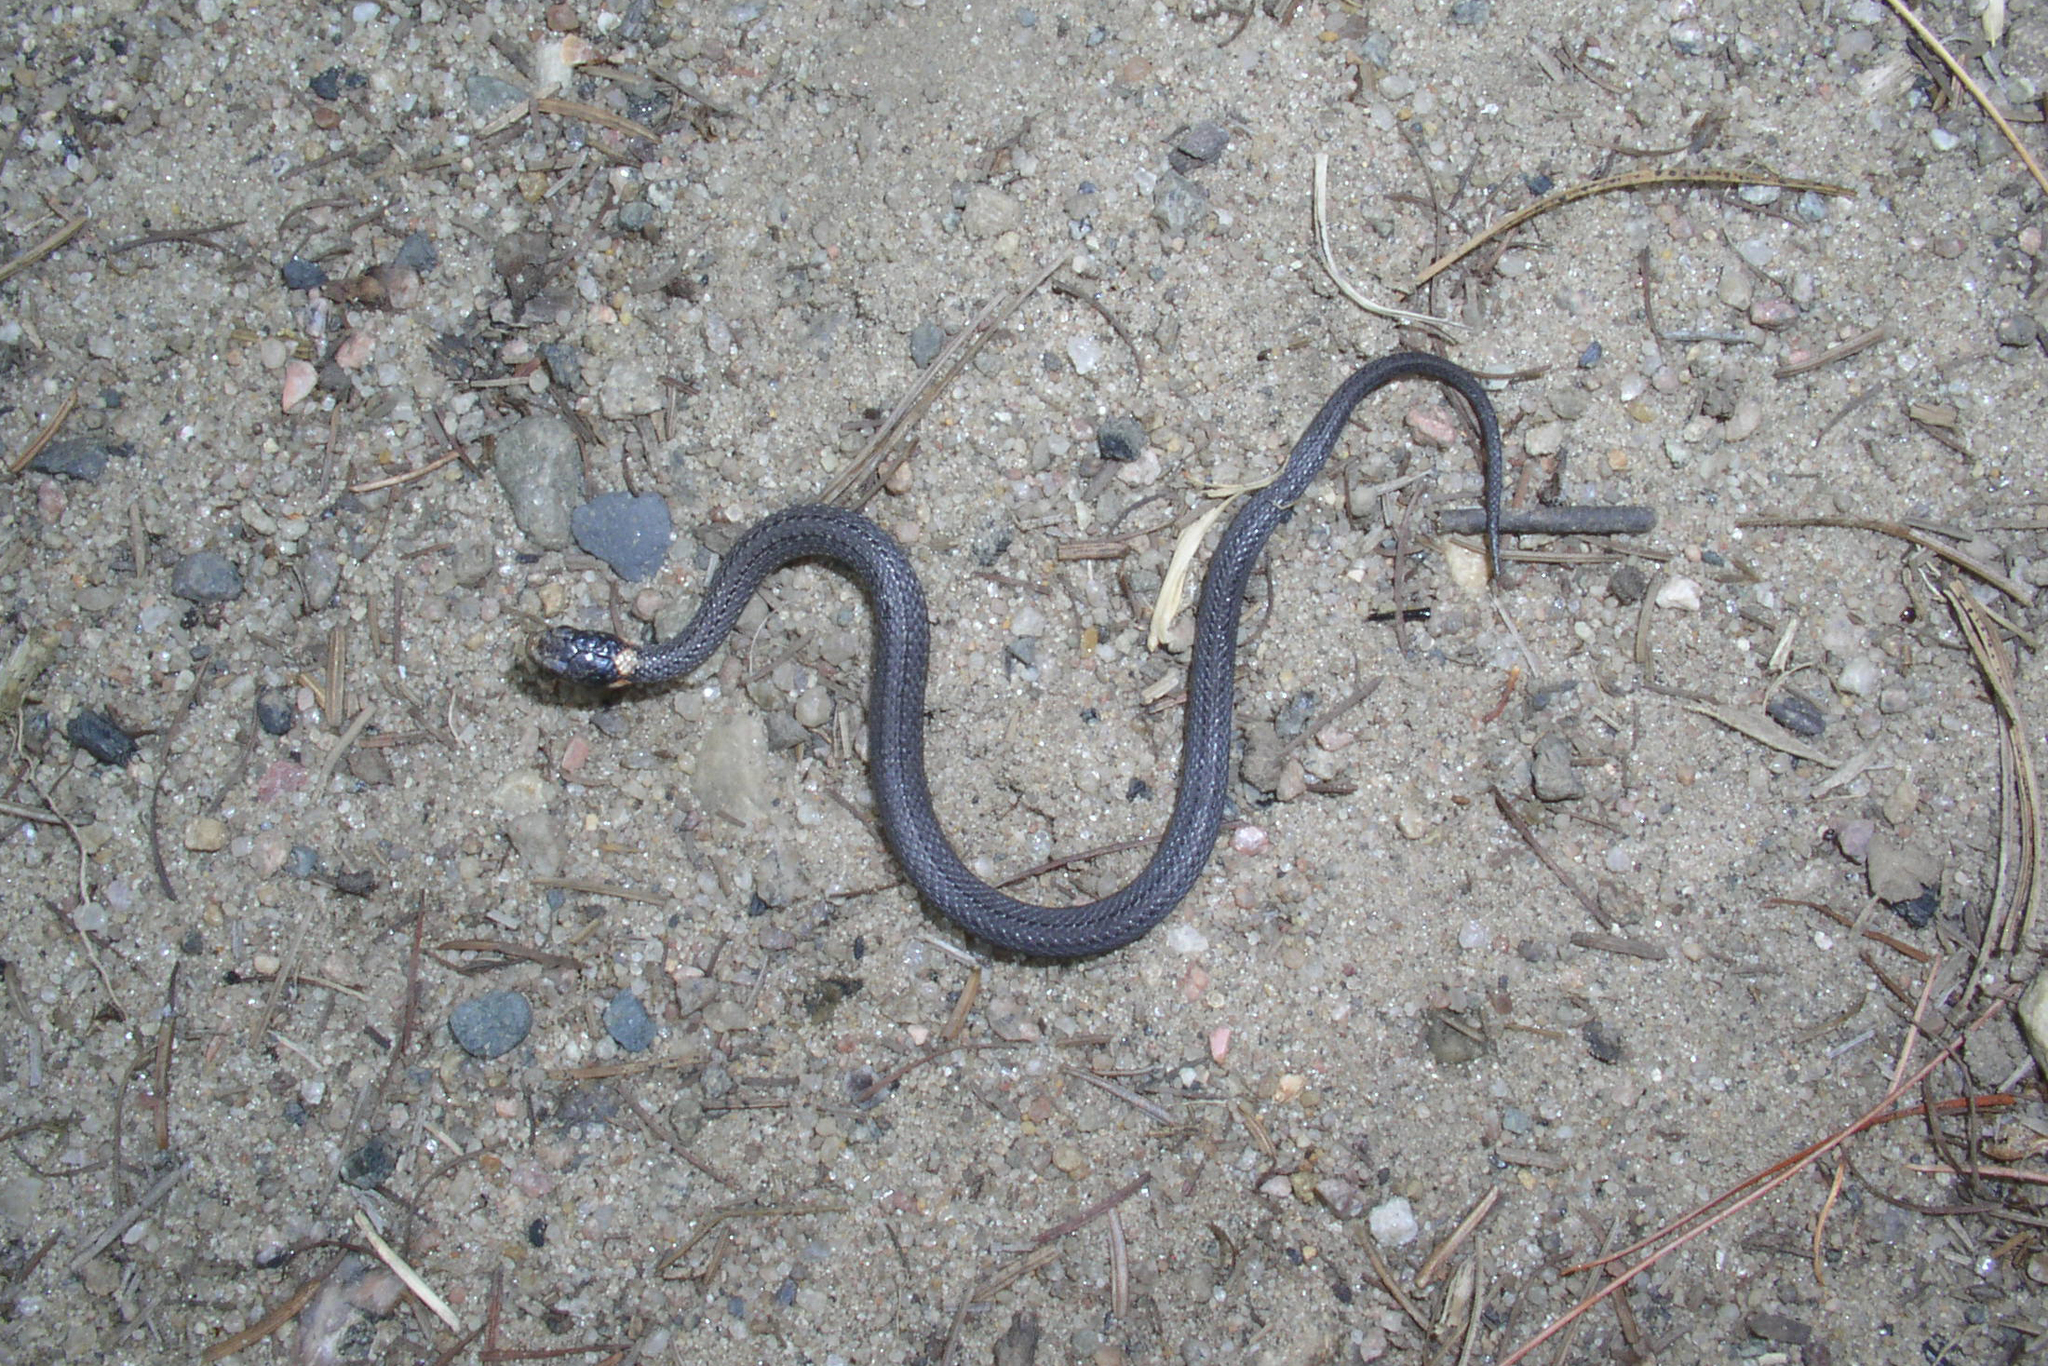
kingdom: Animalia
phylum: Chordata
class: Squamata
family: Colubridae
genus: Storeria
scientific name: Storeria occipitomaculata
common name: Redbelly snake
